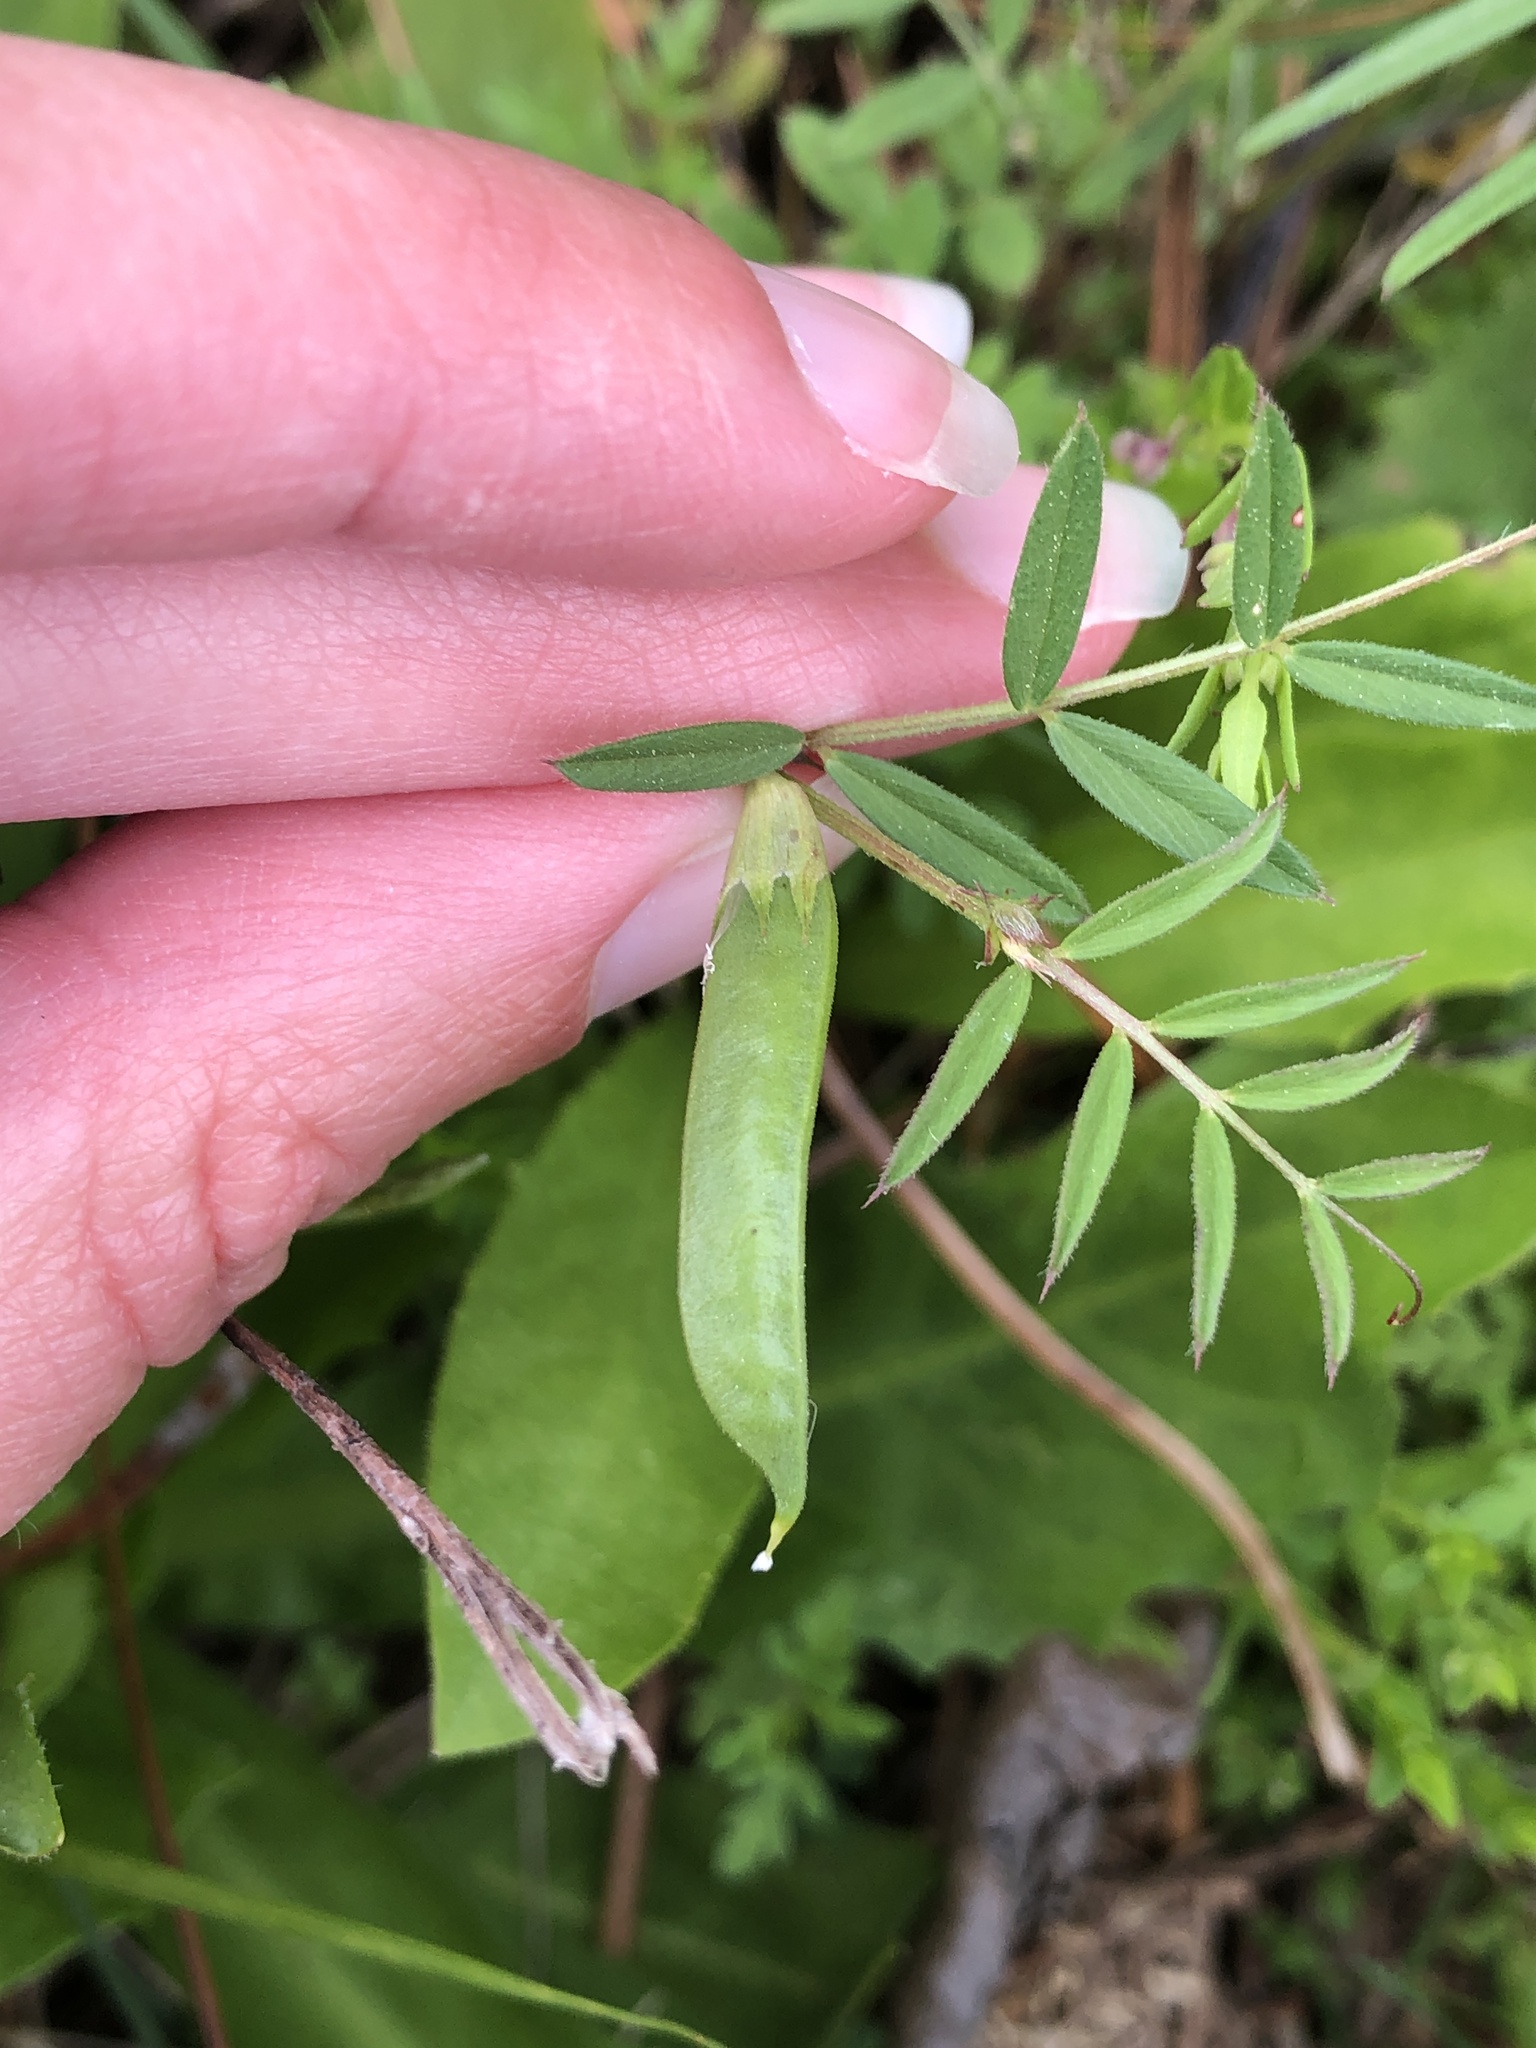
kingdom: Plantae
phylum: Tracheophyta
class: Magnoliopsida
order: Fabales
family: Fabaceae
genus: Vicia
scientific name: Vicia sativa
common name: Garden vetch
